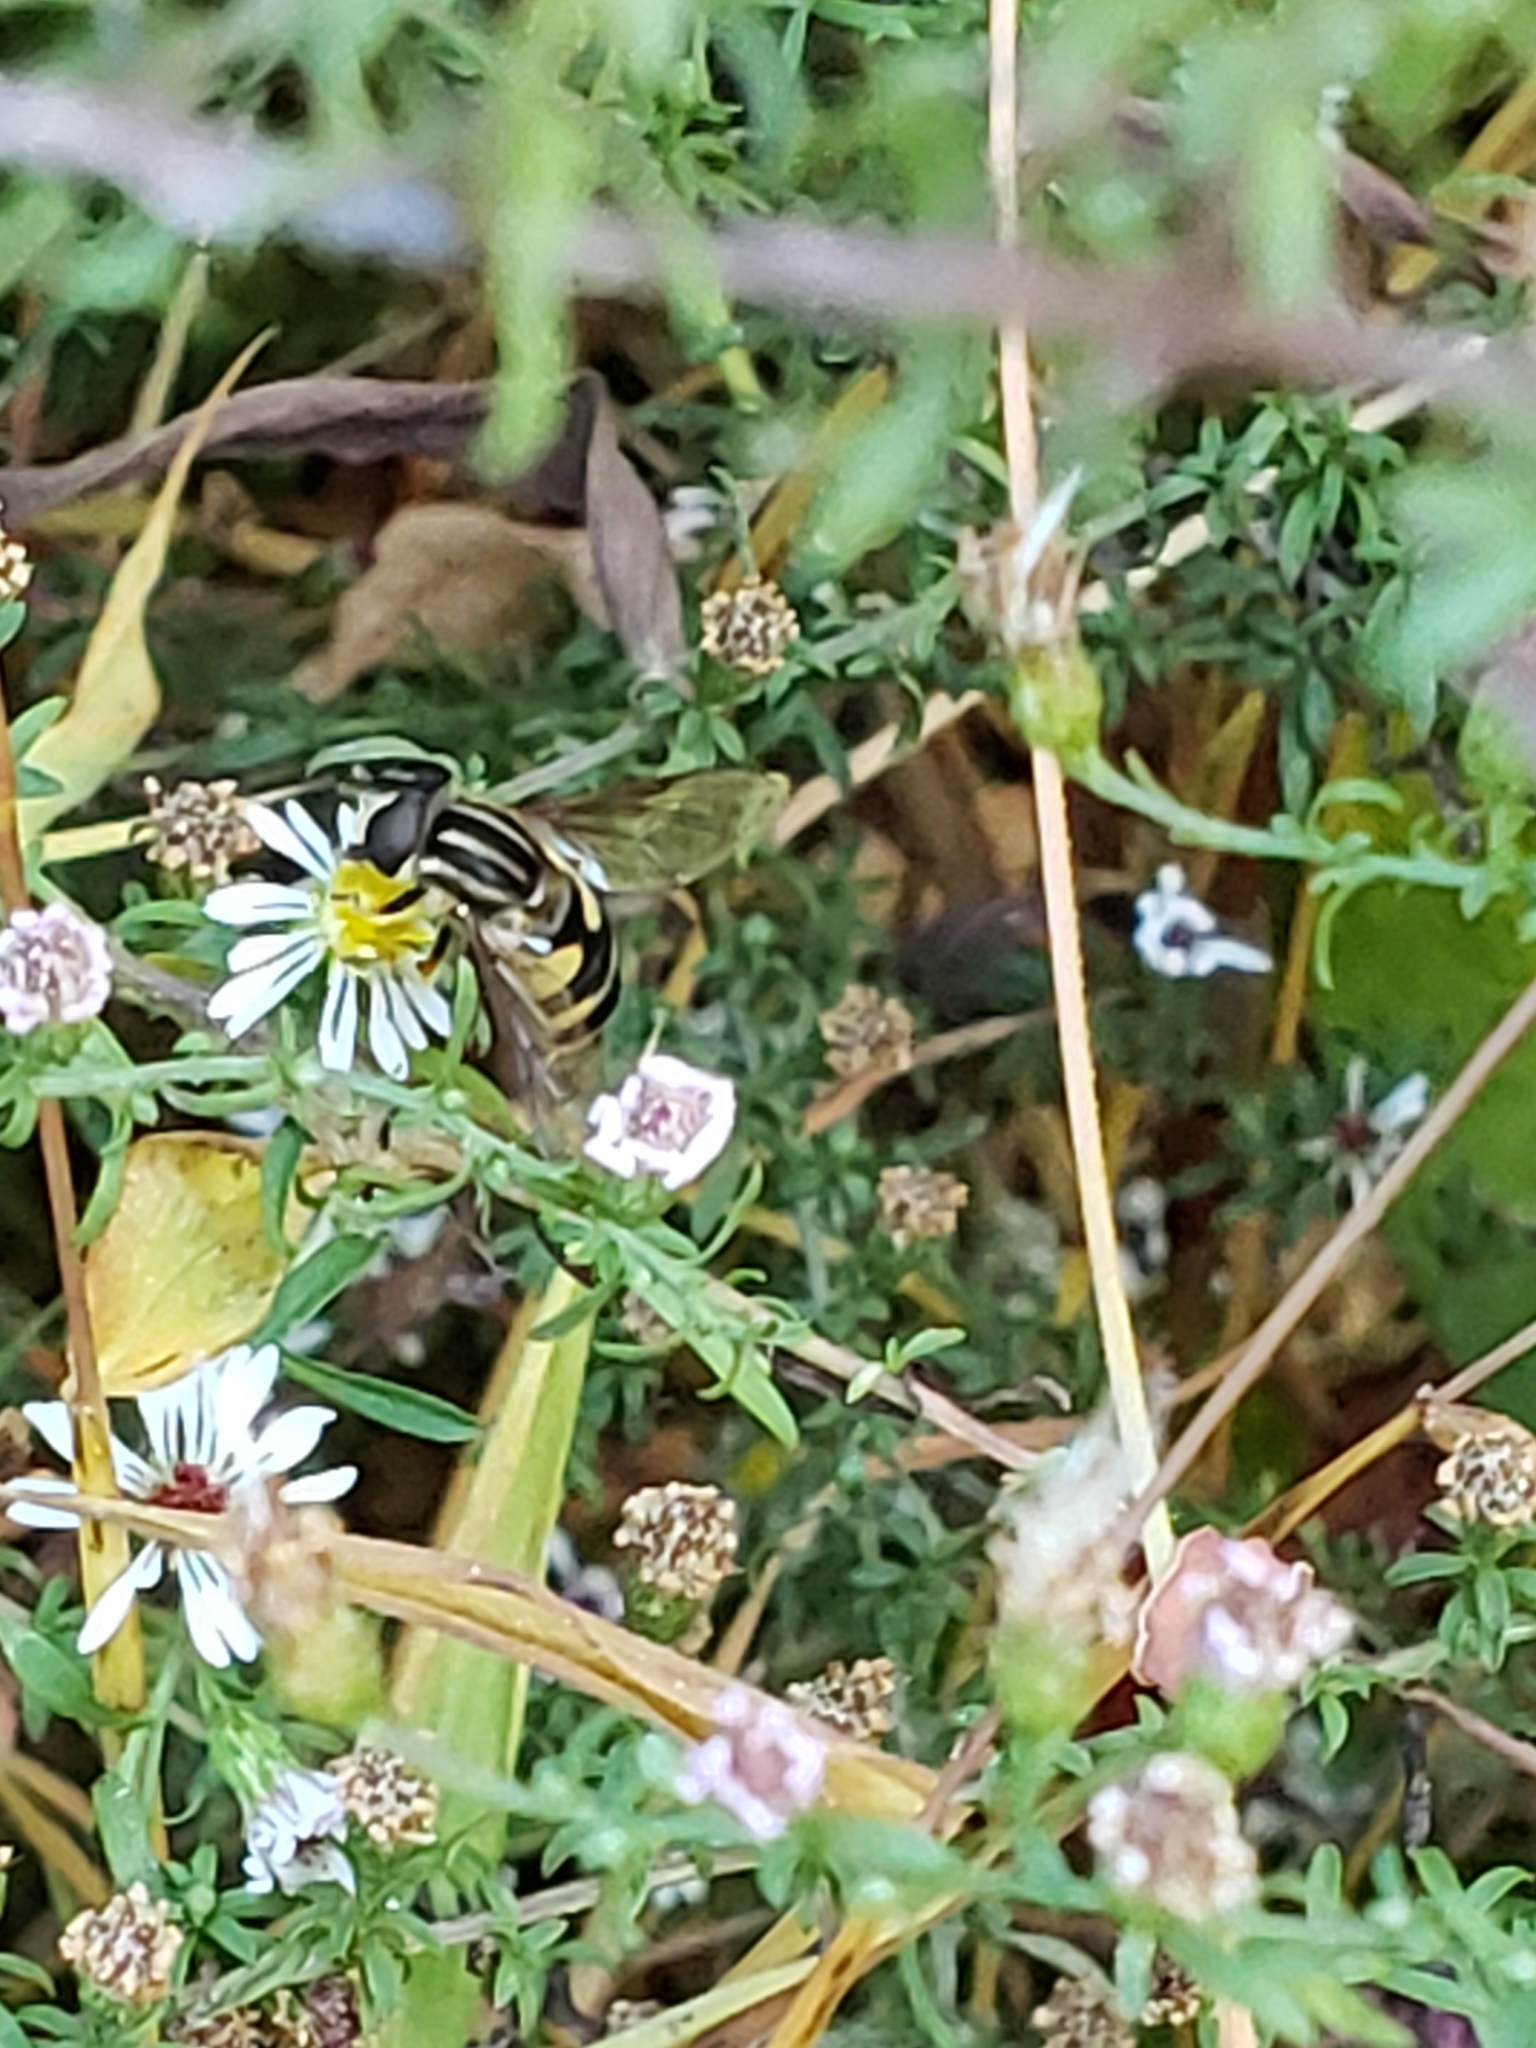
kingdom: Animalia
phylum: Arthropoda
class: Insecta
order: Diptera
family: Syrphidae
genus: Helophilus
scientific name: Helophilus fasciatus
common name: Narrow-headed marsh fly
